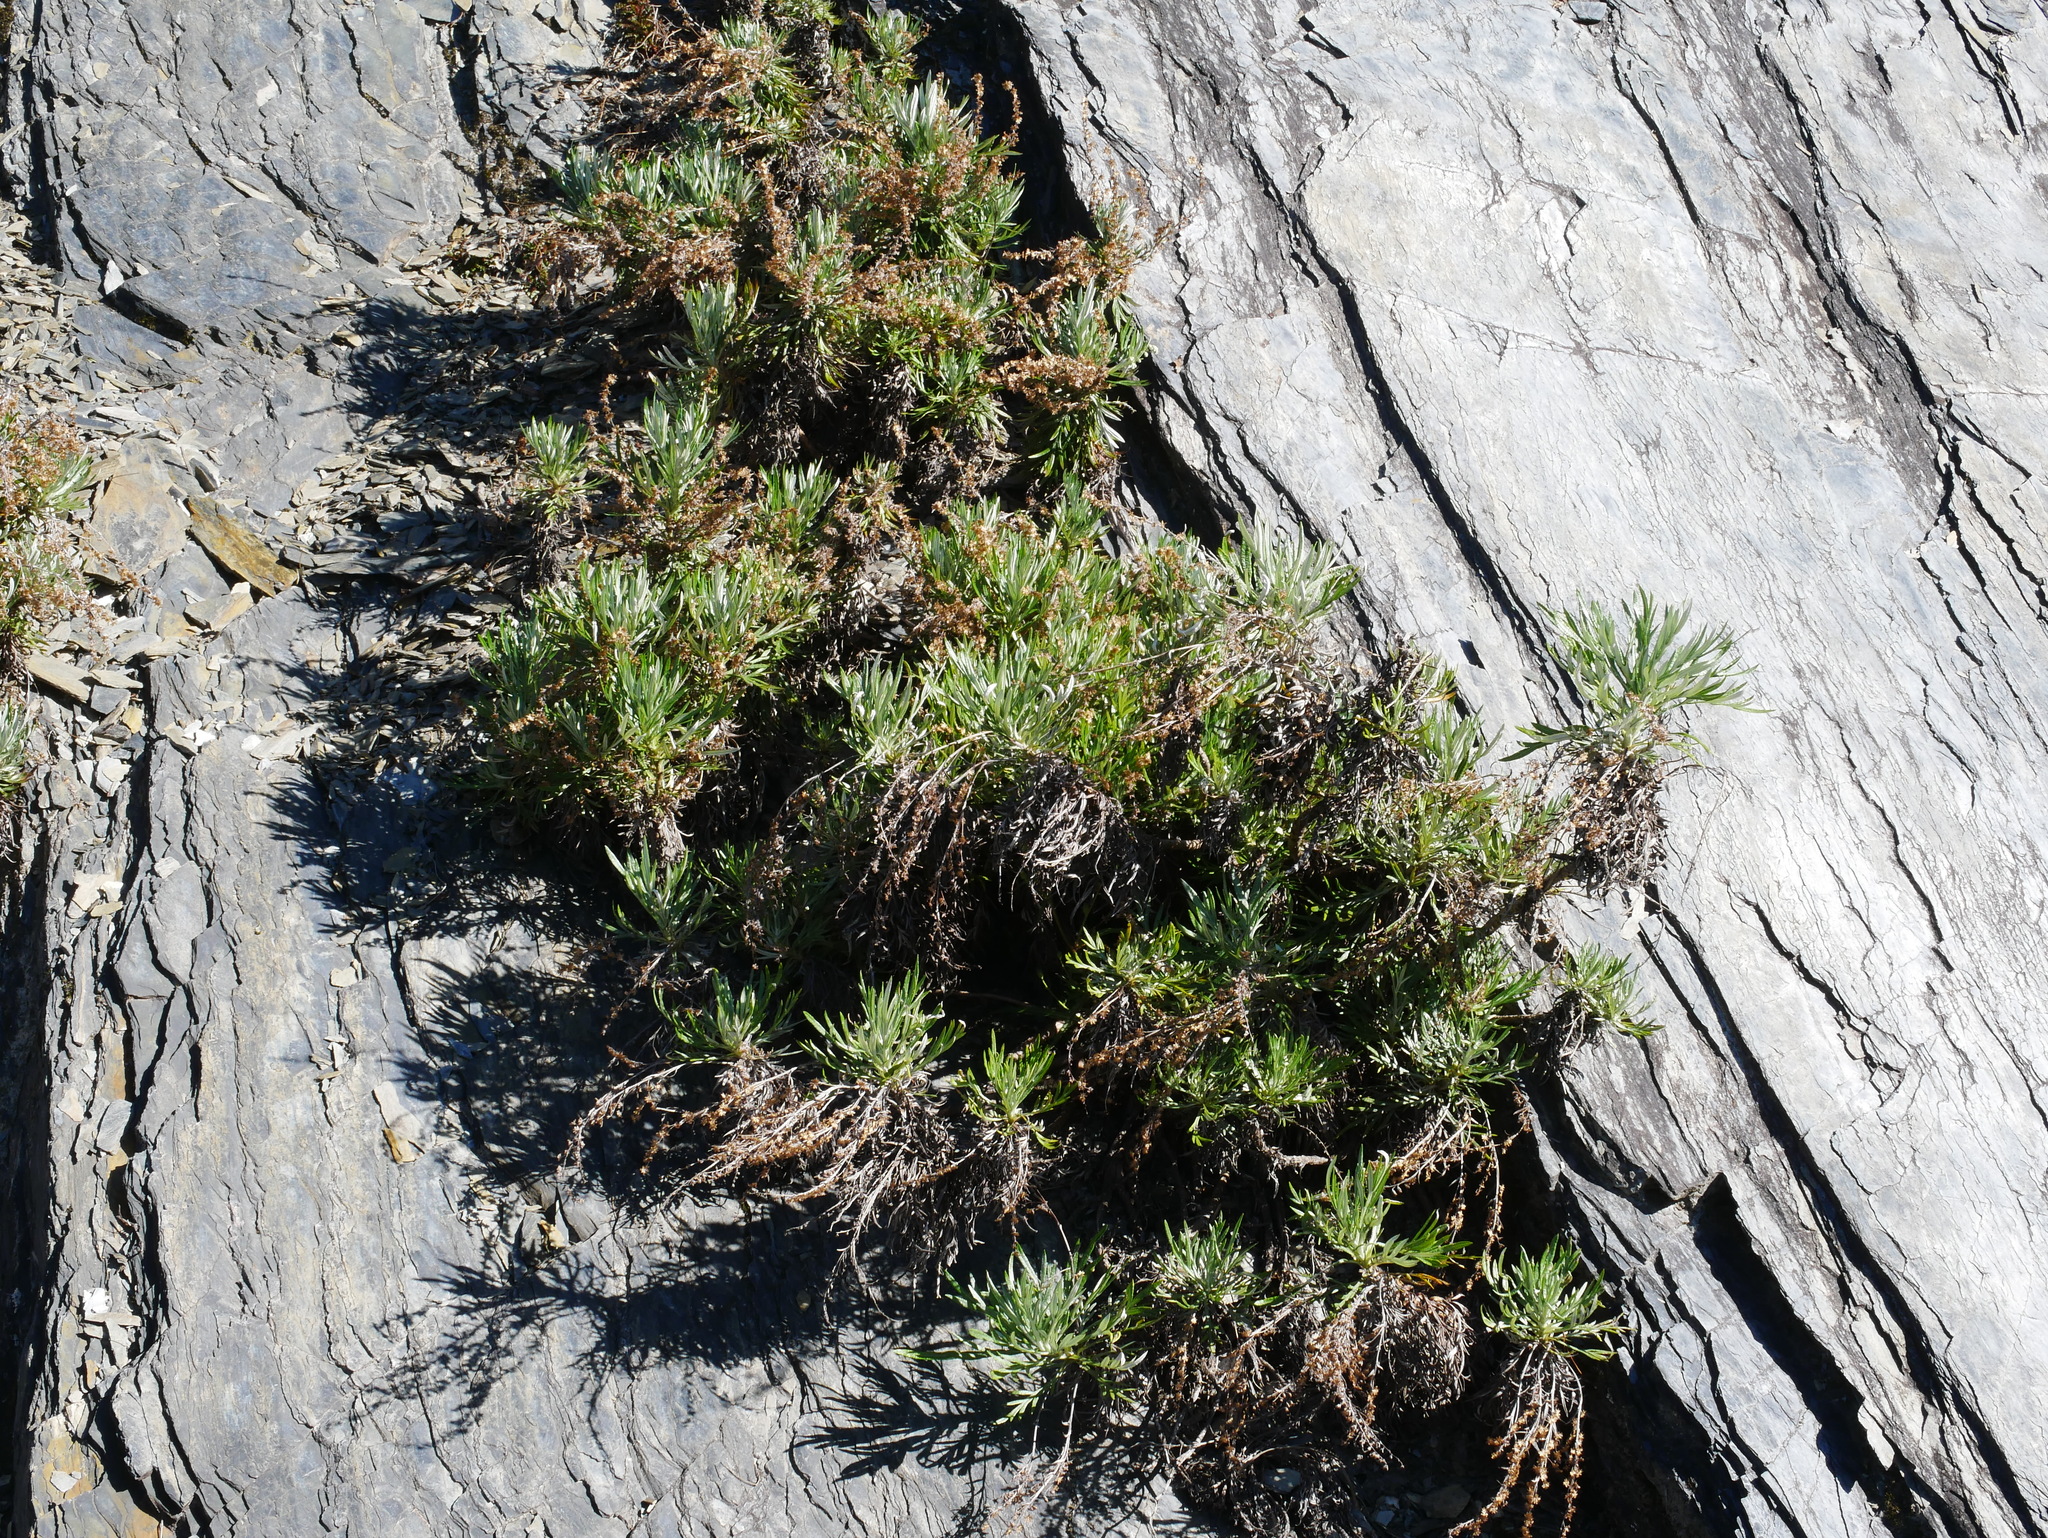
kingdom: Plantae
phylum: Tracheophyta
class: Magnoliopsida
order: Asterales
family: Asteraceae
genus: Artemisia
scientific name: Artemisia somae
